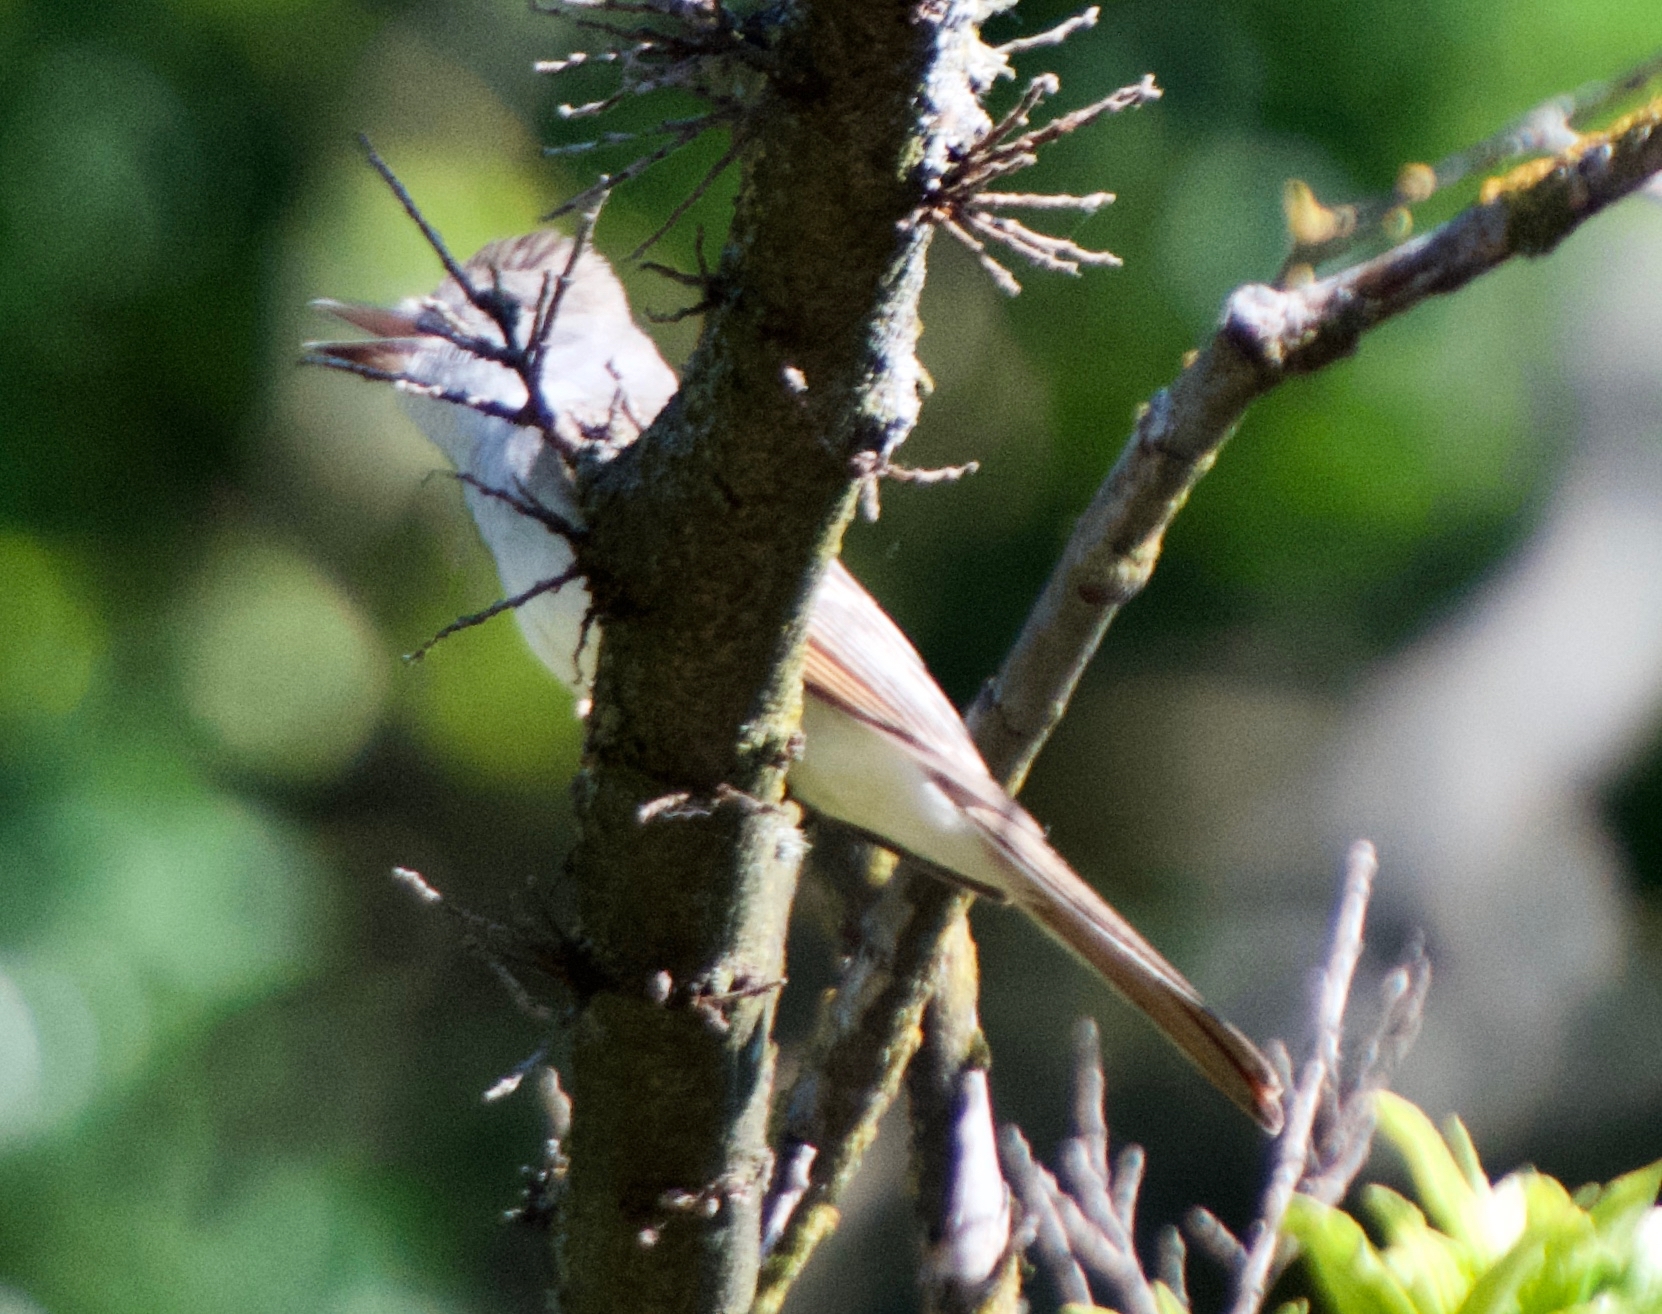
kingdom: Animalia
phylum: Chordata
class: Aves
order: Passeriformes
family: Tyrannidae
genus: Myiarchus
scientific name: Myiarchus cinerascens
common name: Ash-throated flycatcher
